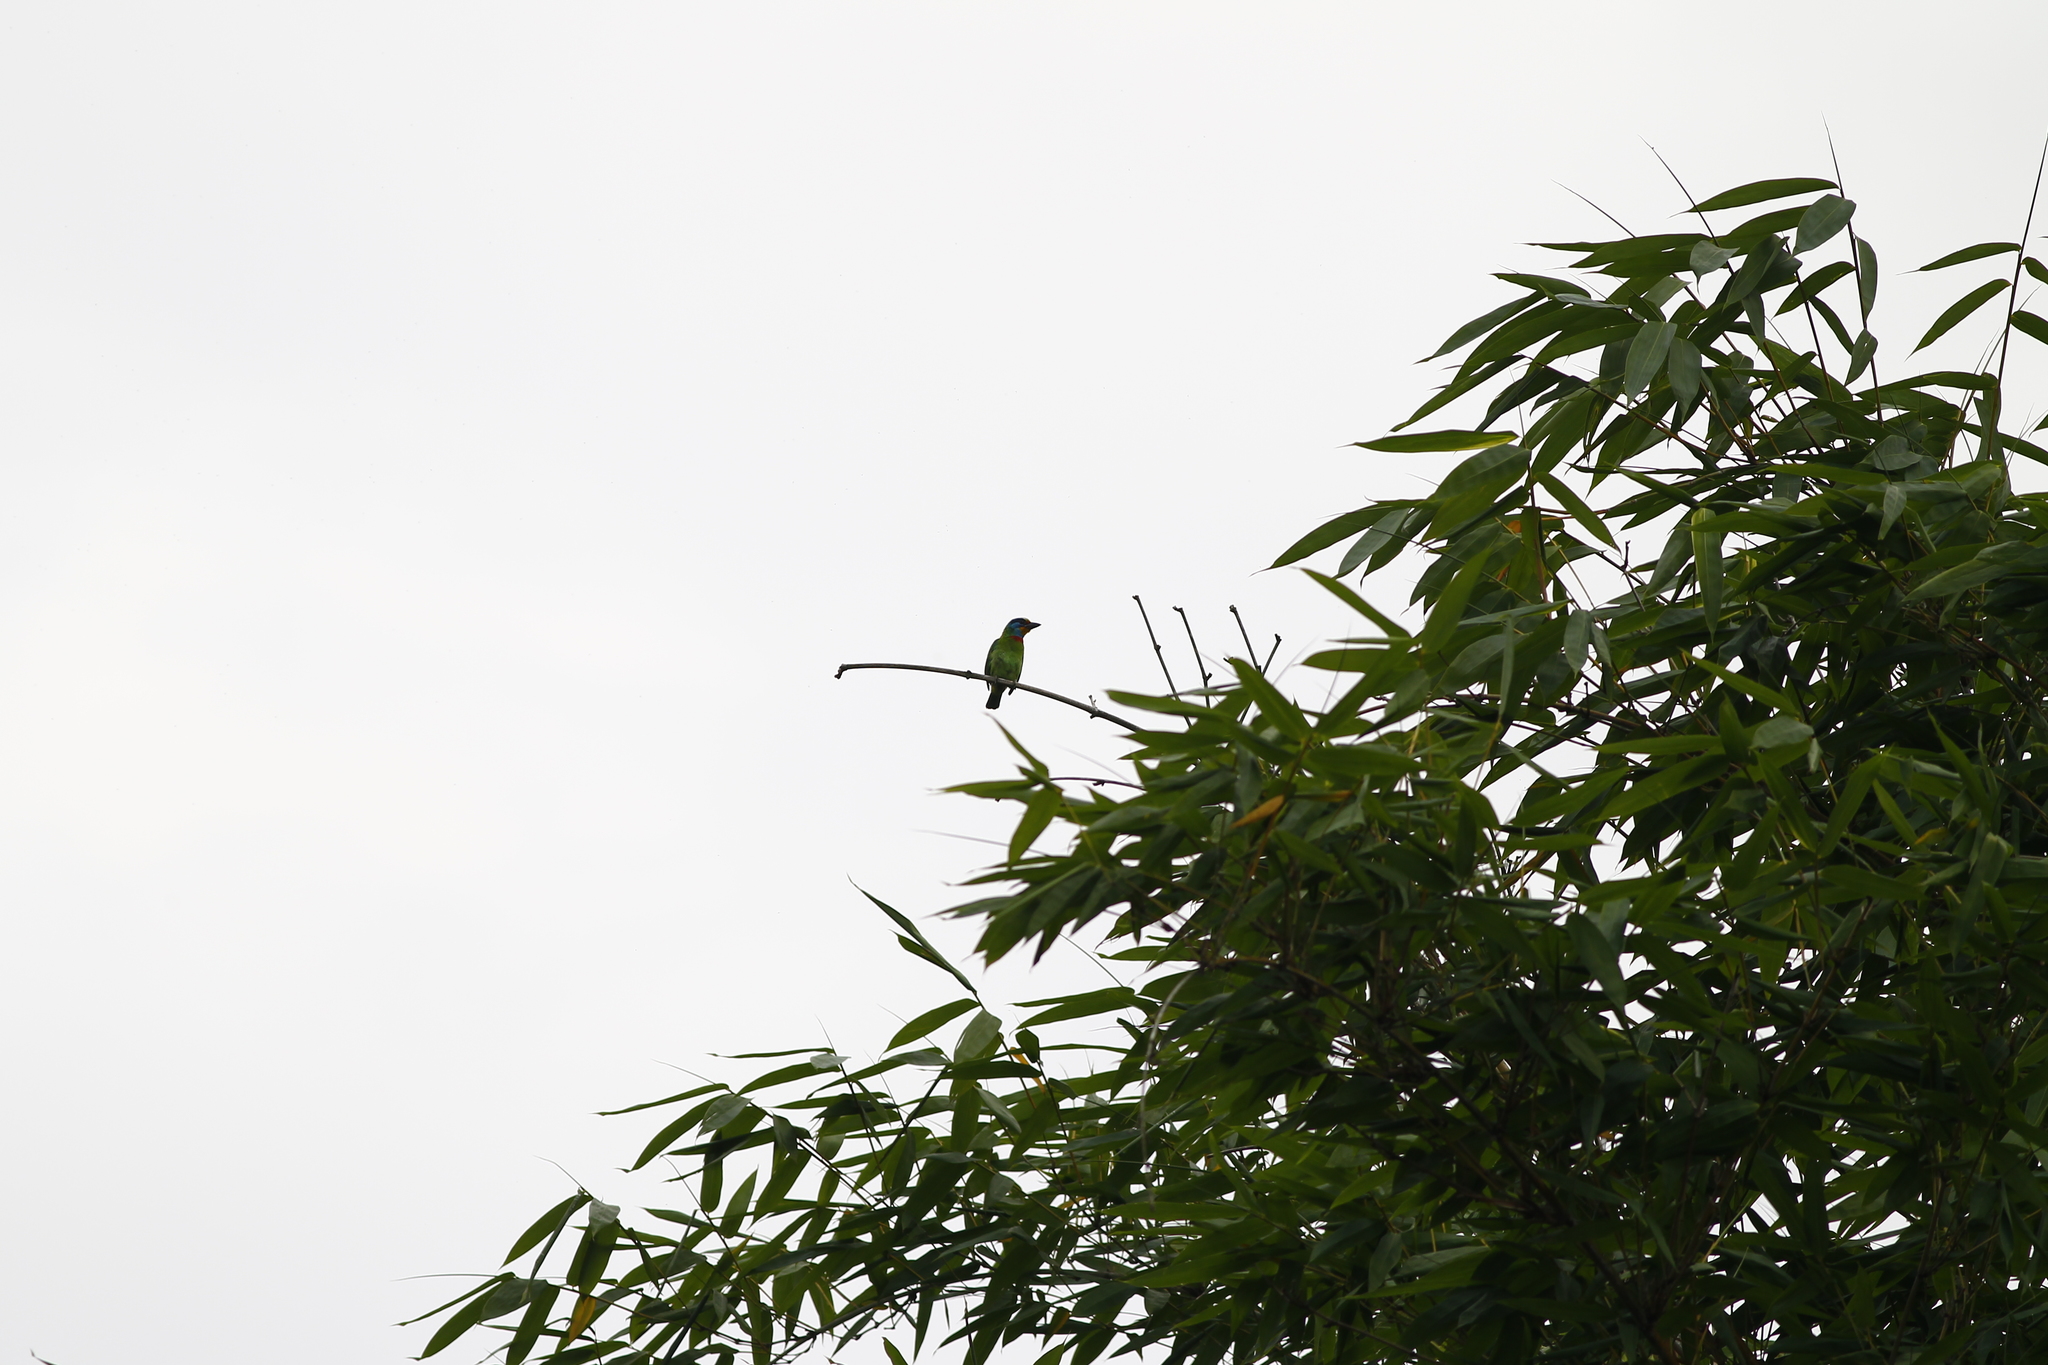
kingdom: Animalia
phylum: Chordata
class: Aves
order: Piciformes
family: Megalaimidae
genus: Psilopogon
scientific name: Psilopogon nuchalis
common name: Taiwan barbet
